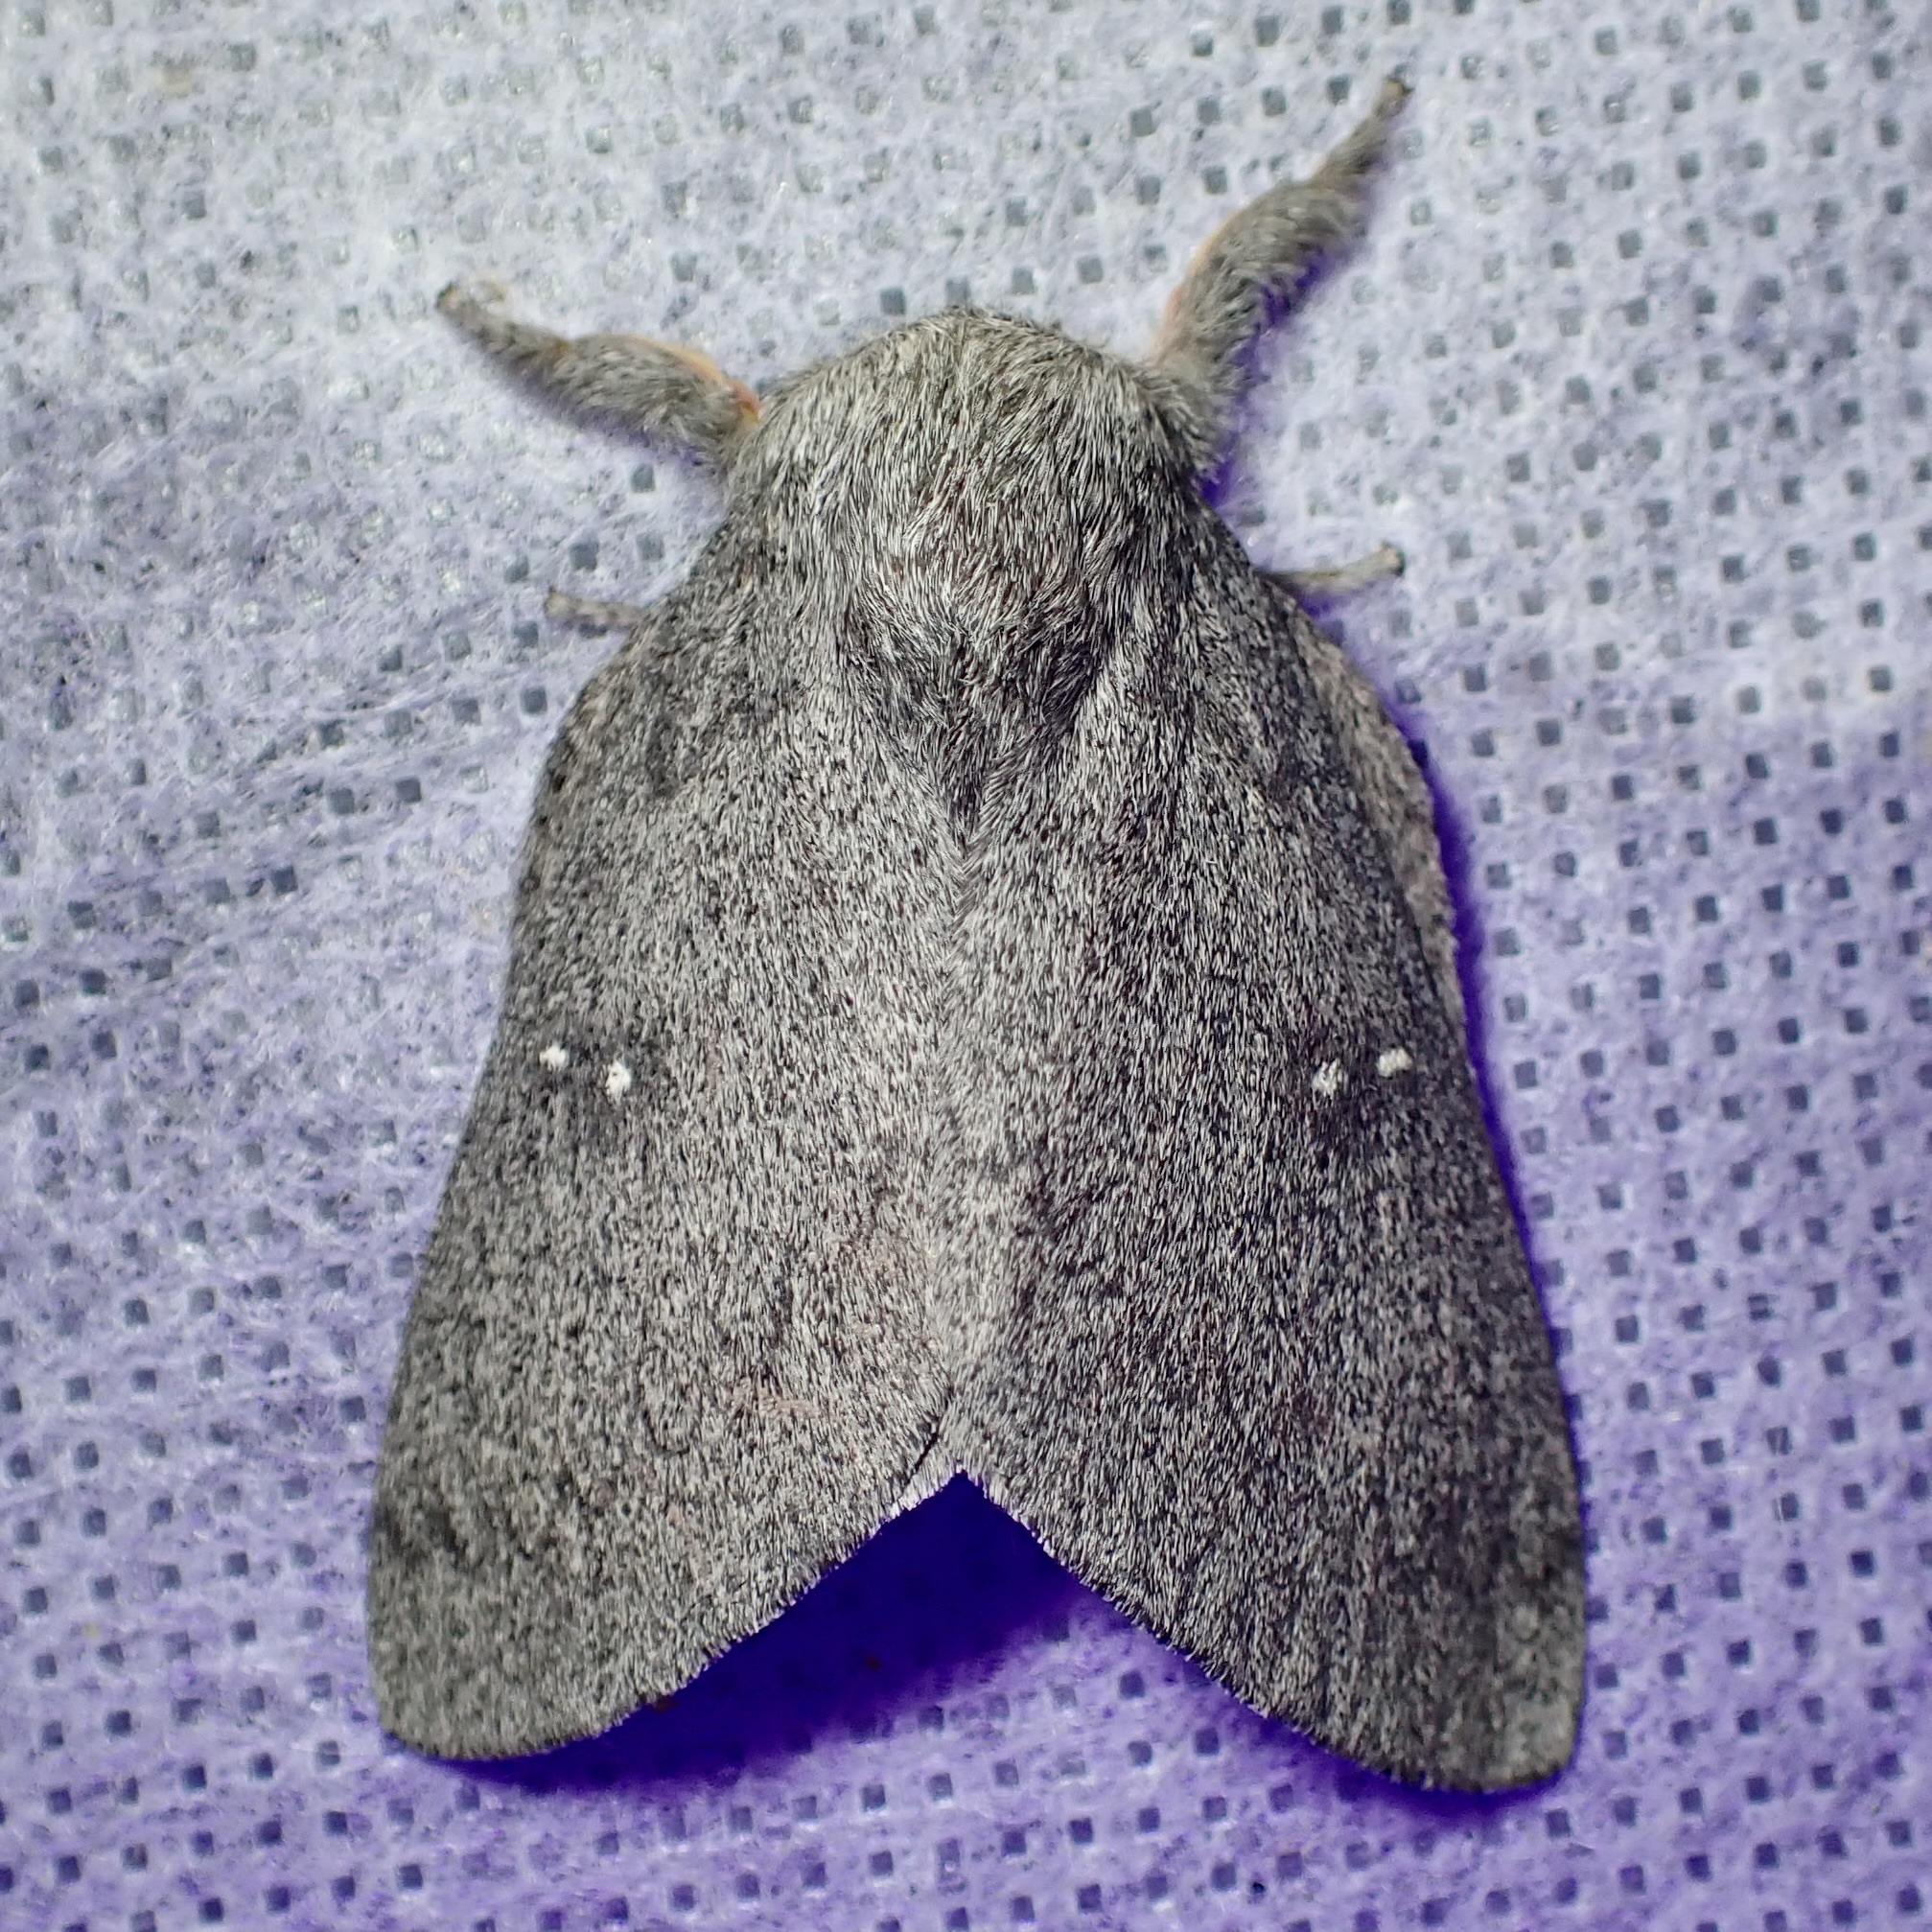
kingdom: Animalia
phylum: Arthropoda
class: Insecta
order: Lepidoptera
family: Saturniidae
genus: Syssphinx
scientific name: Syssphinx hubbardi
